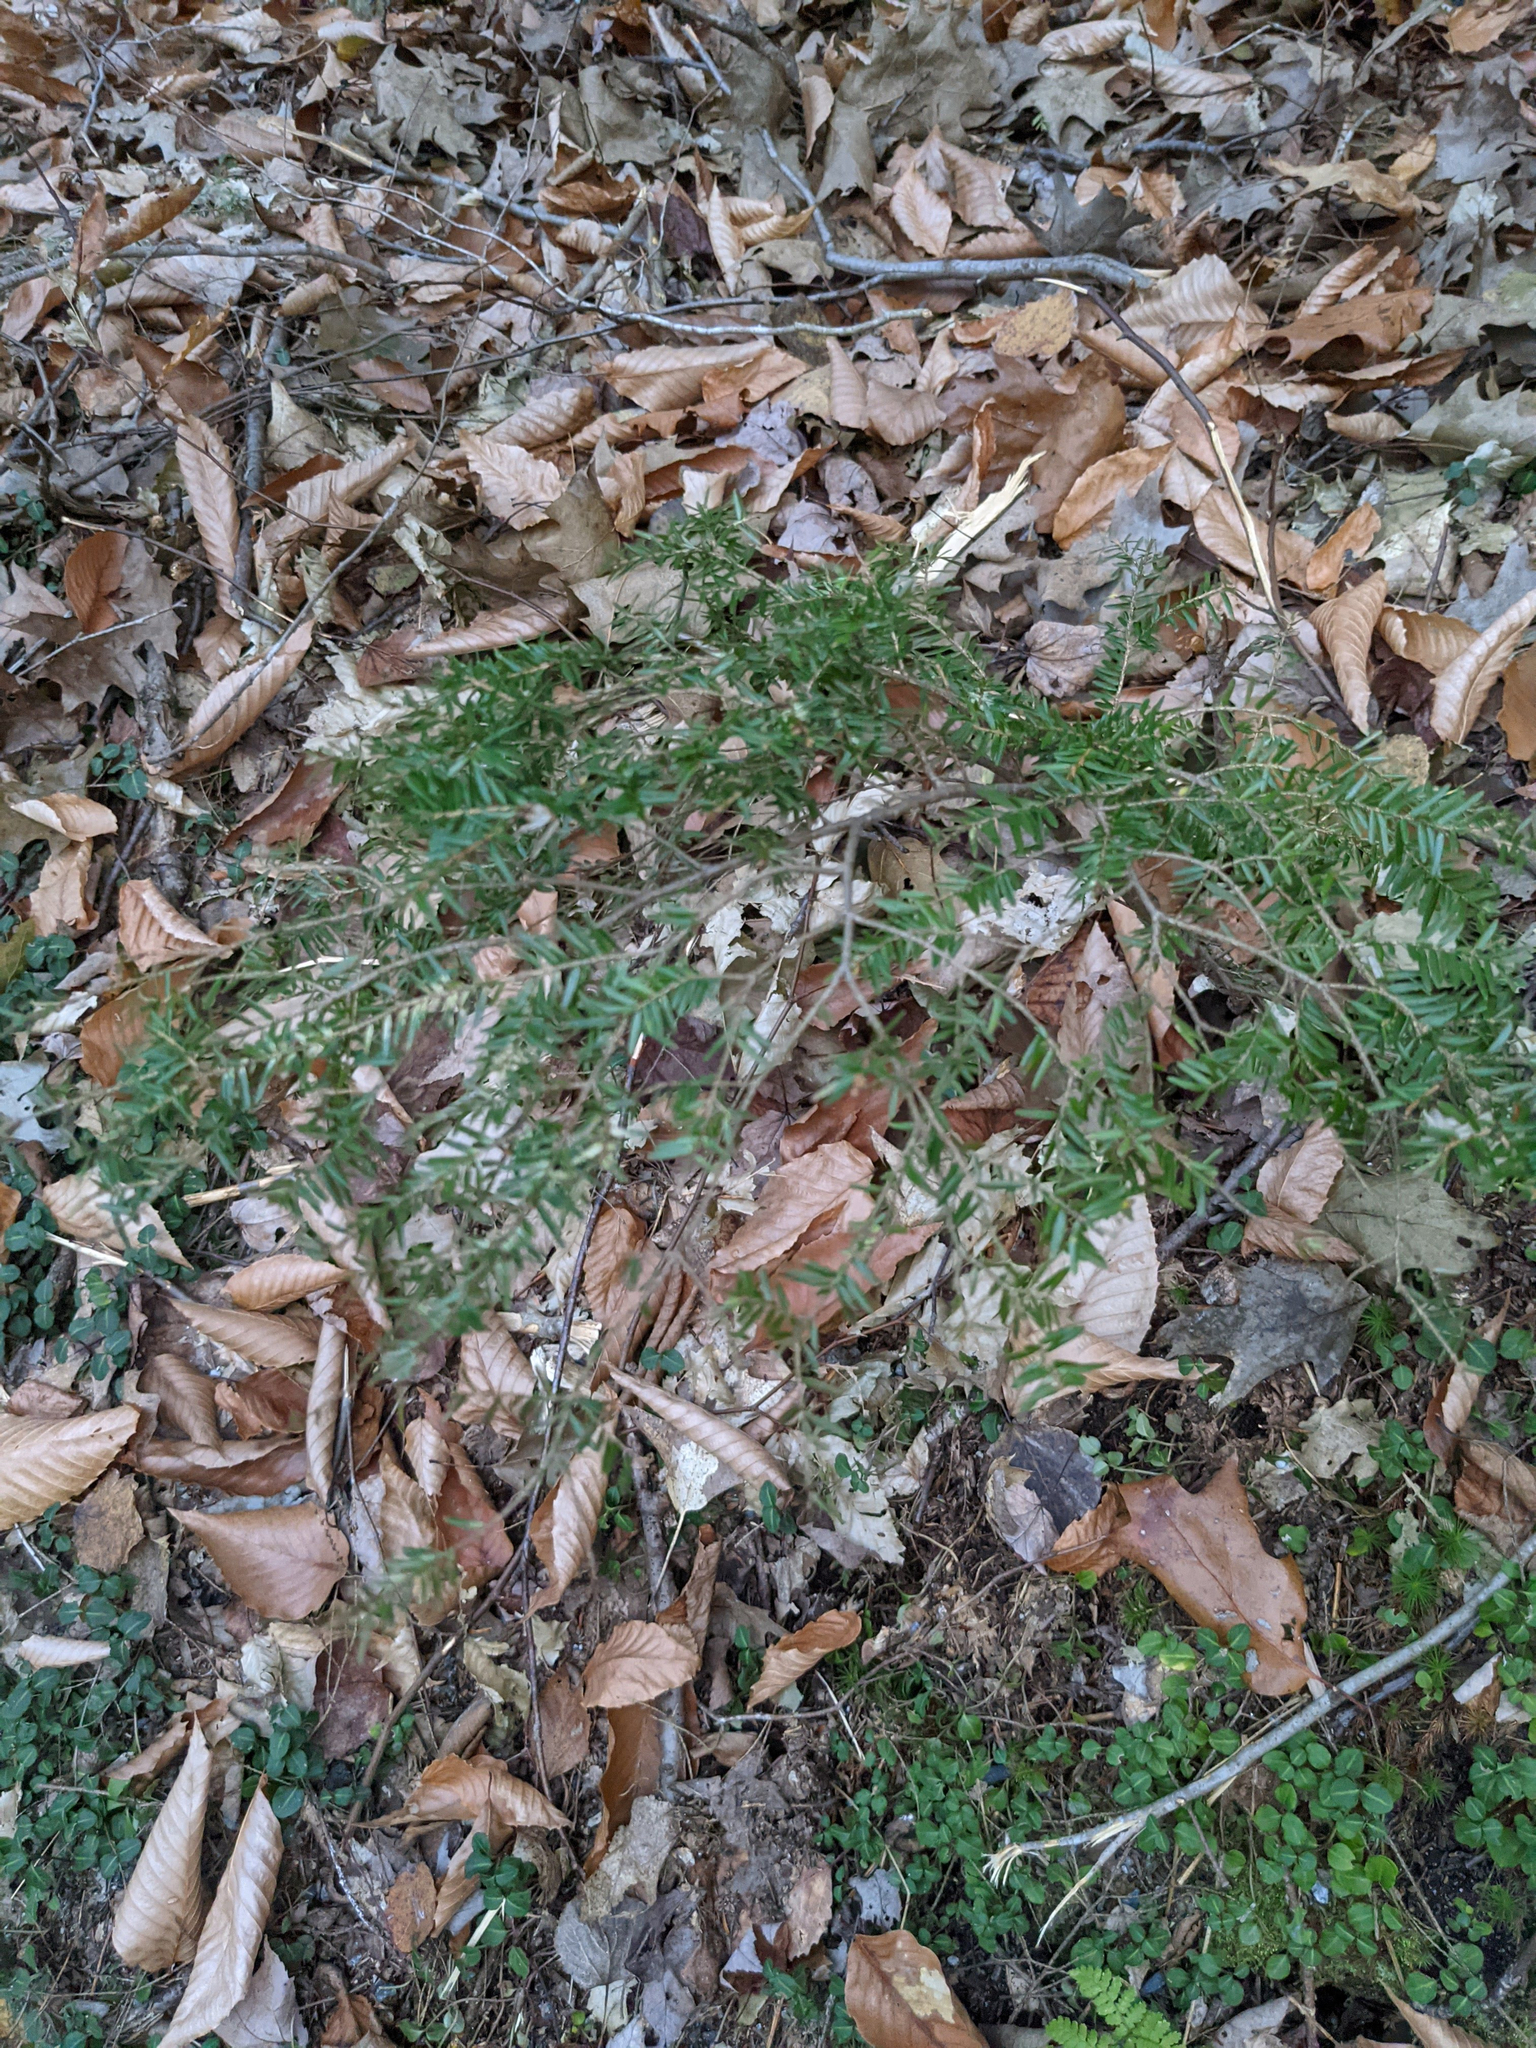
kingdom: Plantae
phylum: Tracheophyta
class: Pinopsida
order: Pinales
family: Pinaceae
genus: Tsuga
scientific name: Tsuga canadensis
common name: Eastern hemlock
